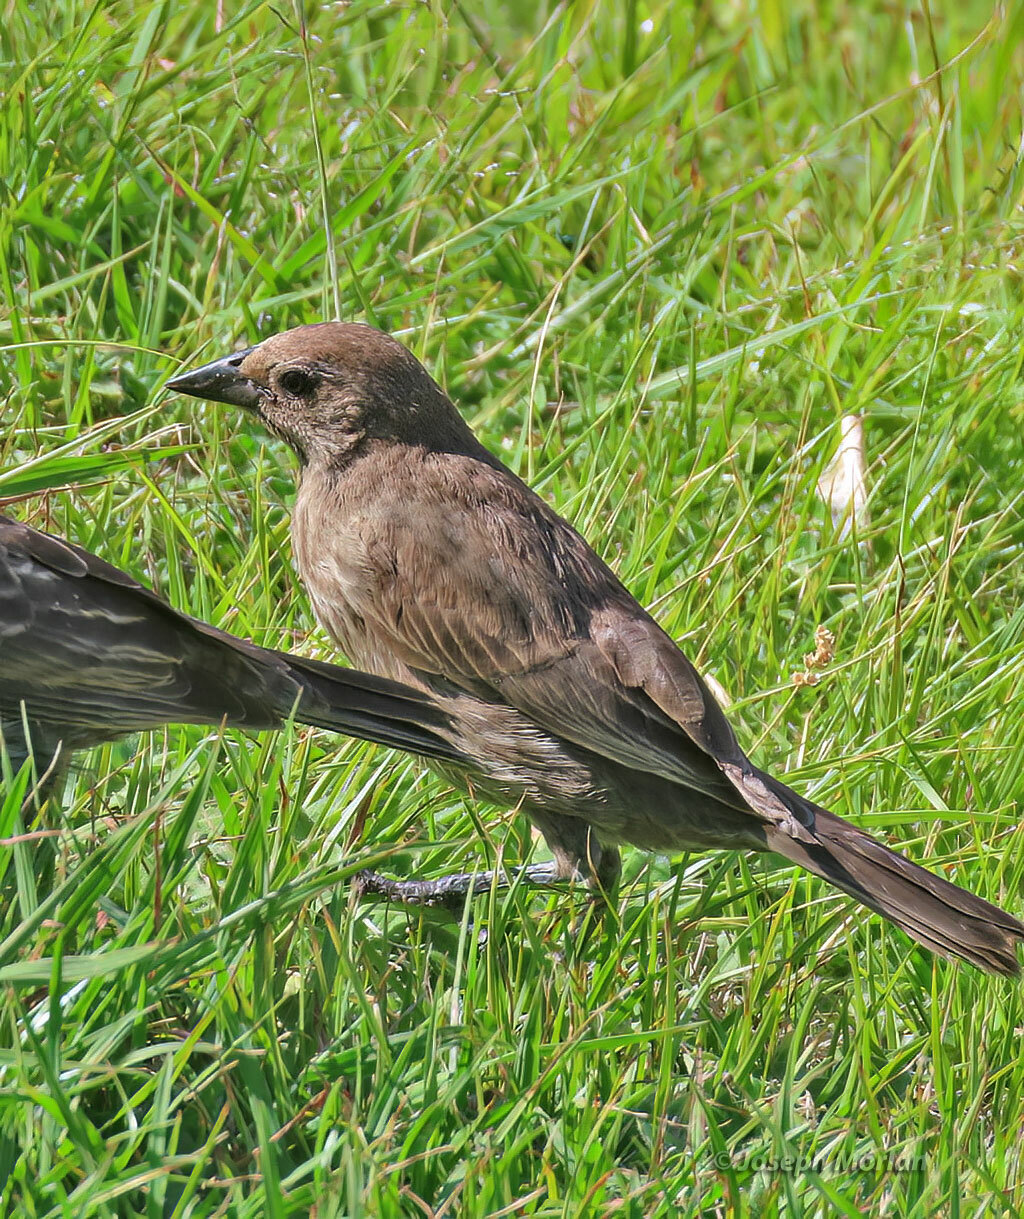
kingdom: Animalia
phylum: Chordata
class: Aves
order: Passeriformes
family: Icteridae
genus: Molothrus
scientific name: Molothrus bonariensis
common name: Shiny cowbird
